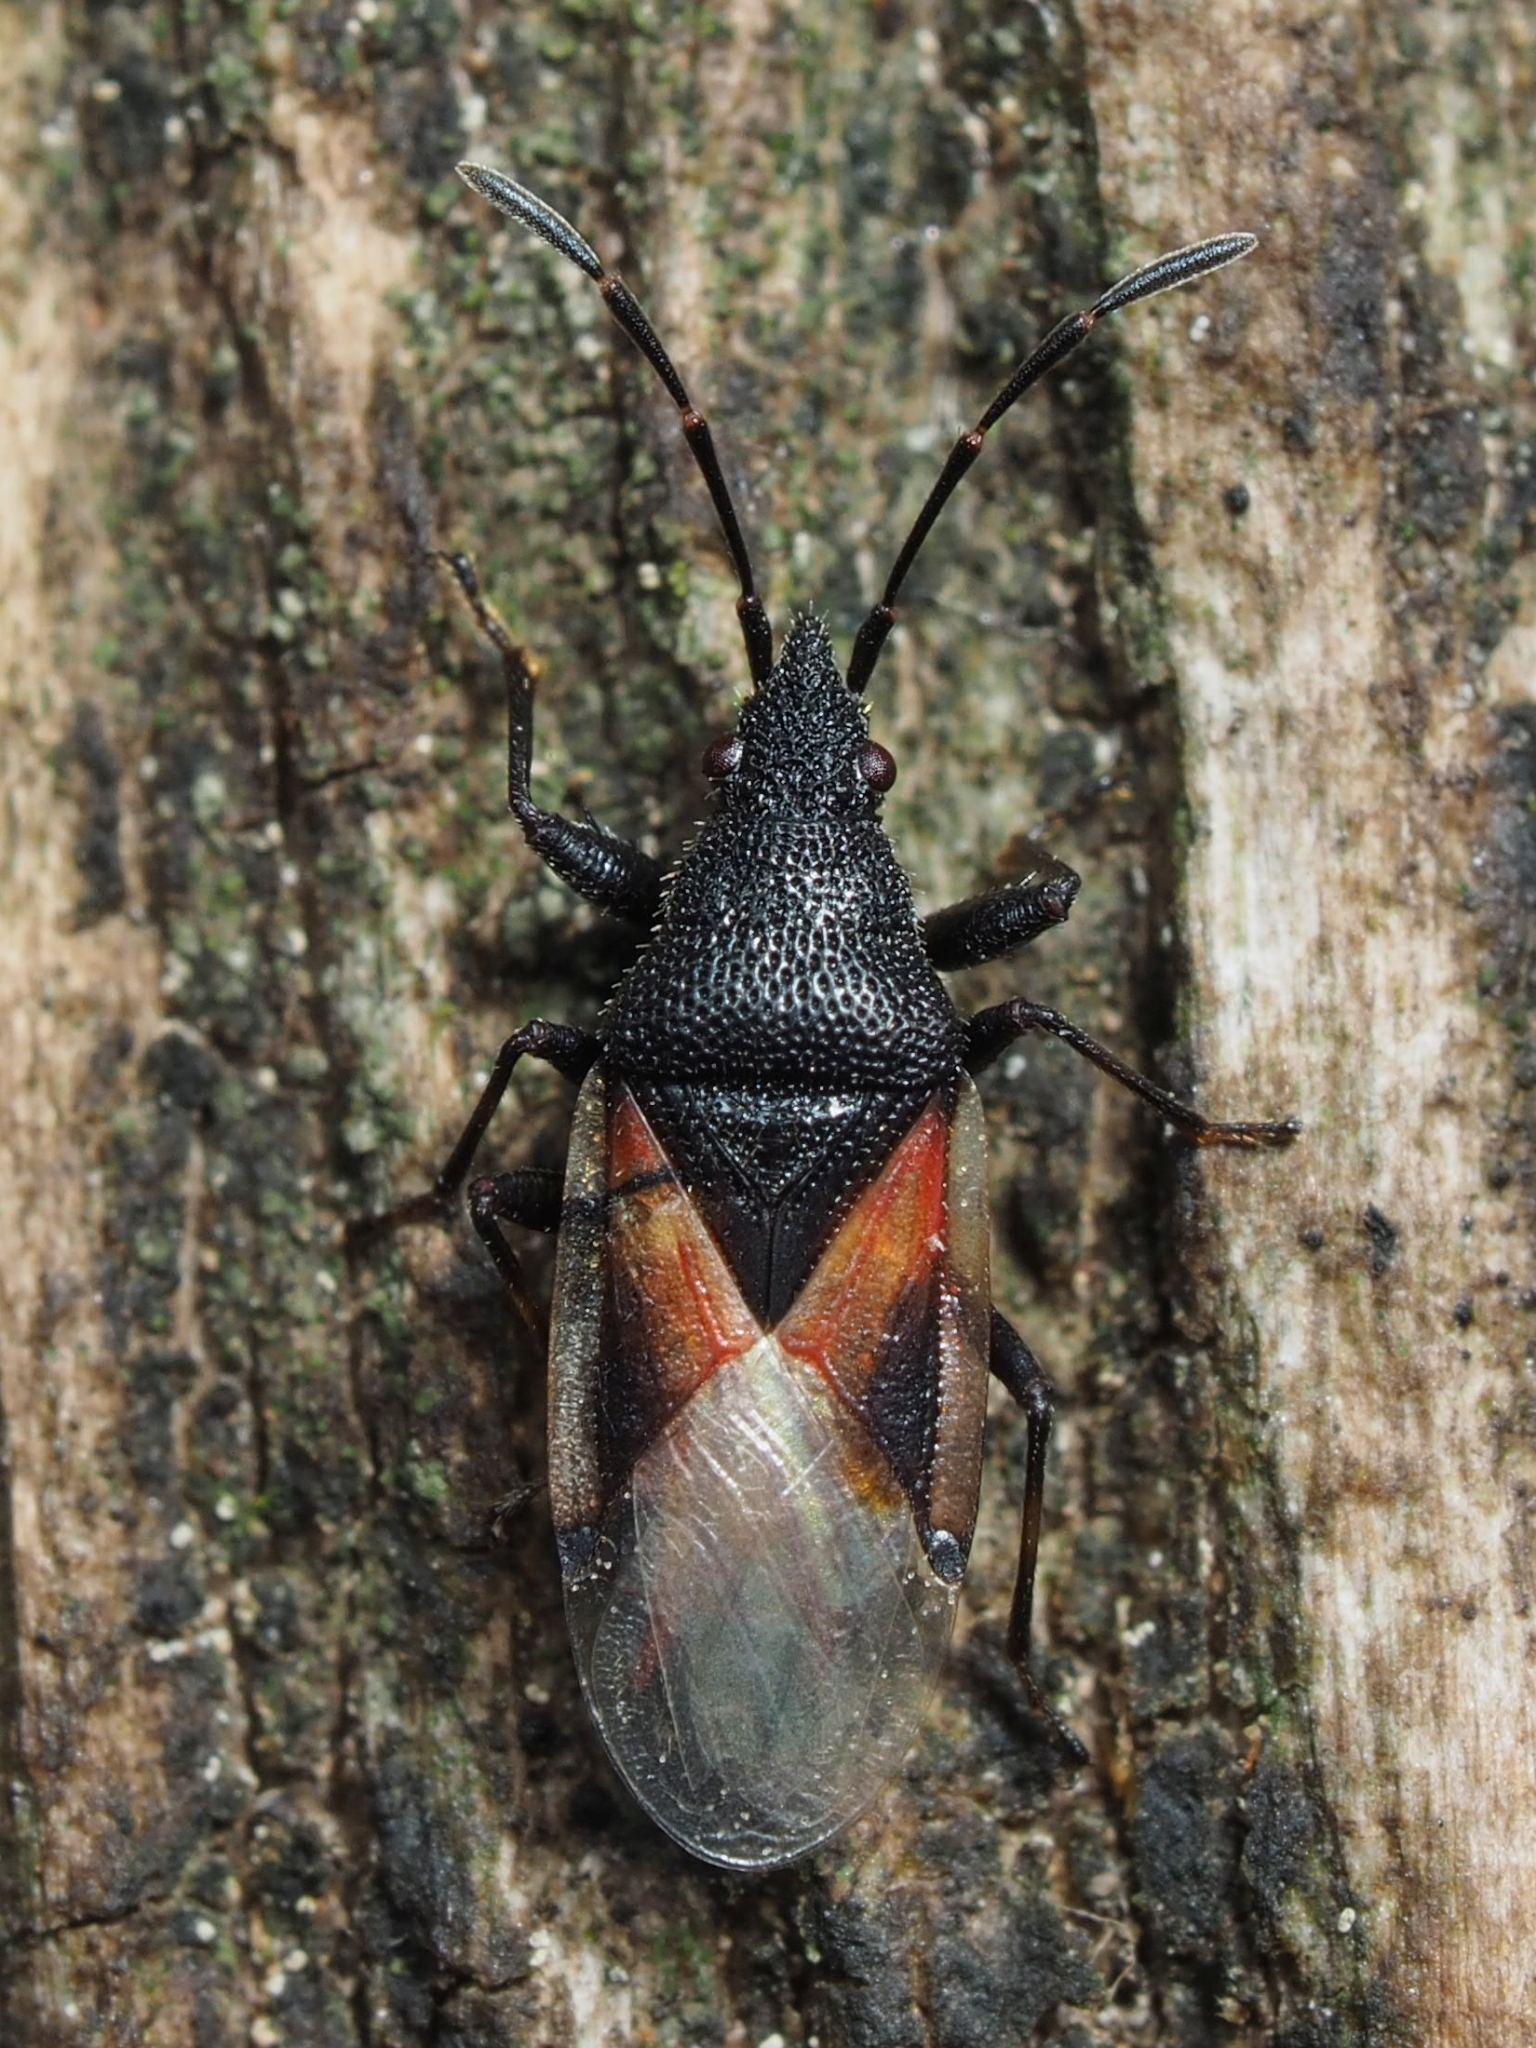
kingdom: Animalia
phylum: Arthropoda
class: Insecta
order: Hemiptera
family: Oxycarenidae
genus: Oxycarenus
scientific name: Oxycarenus lavaterae
